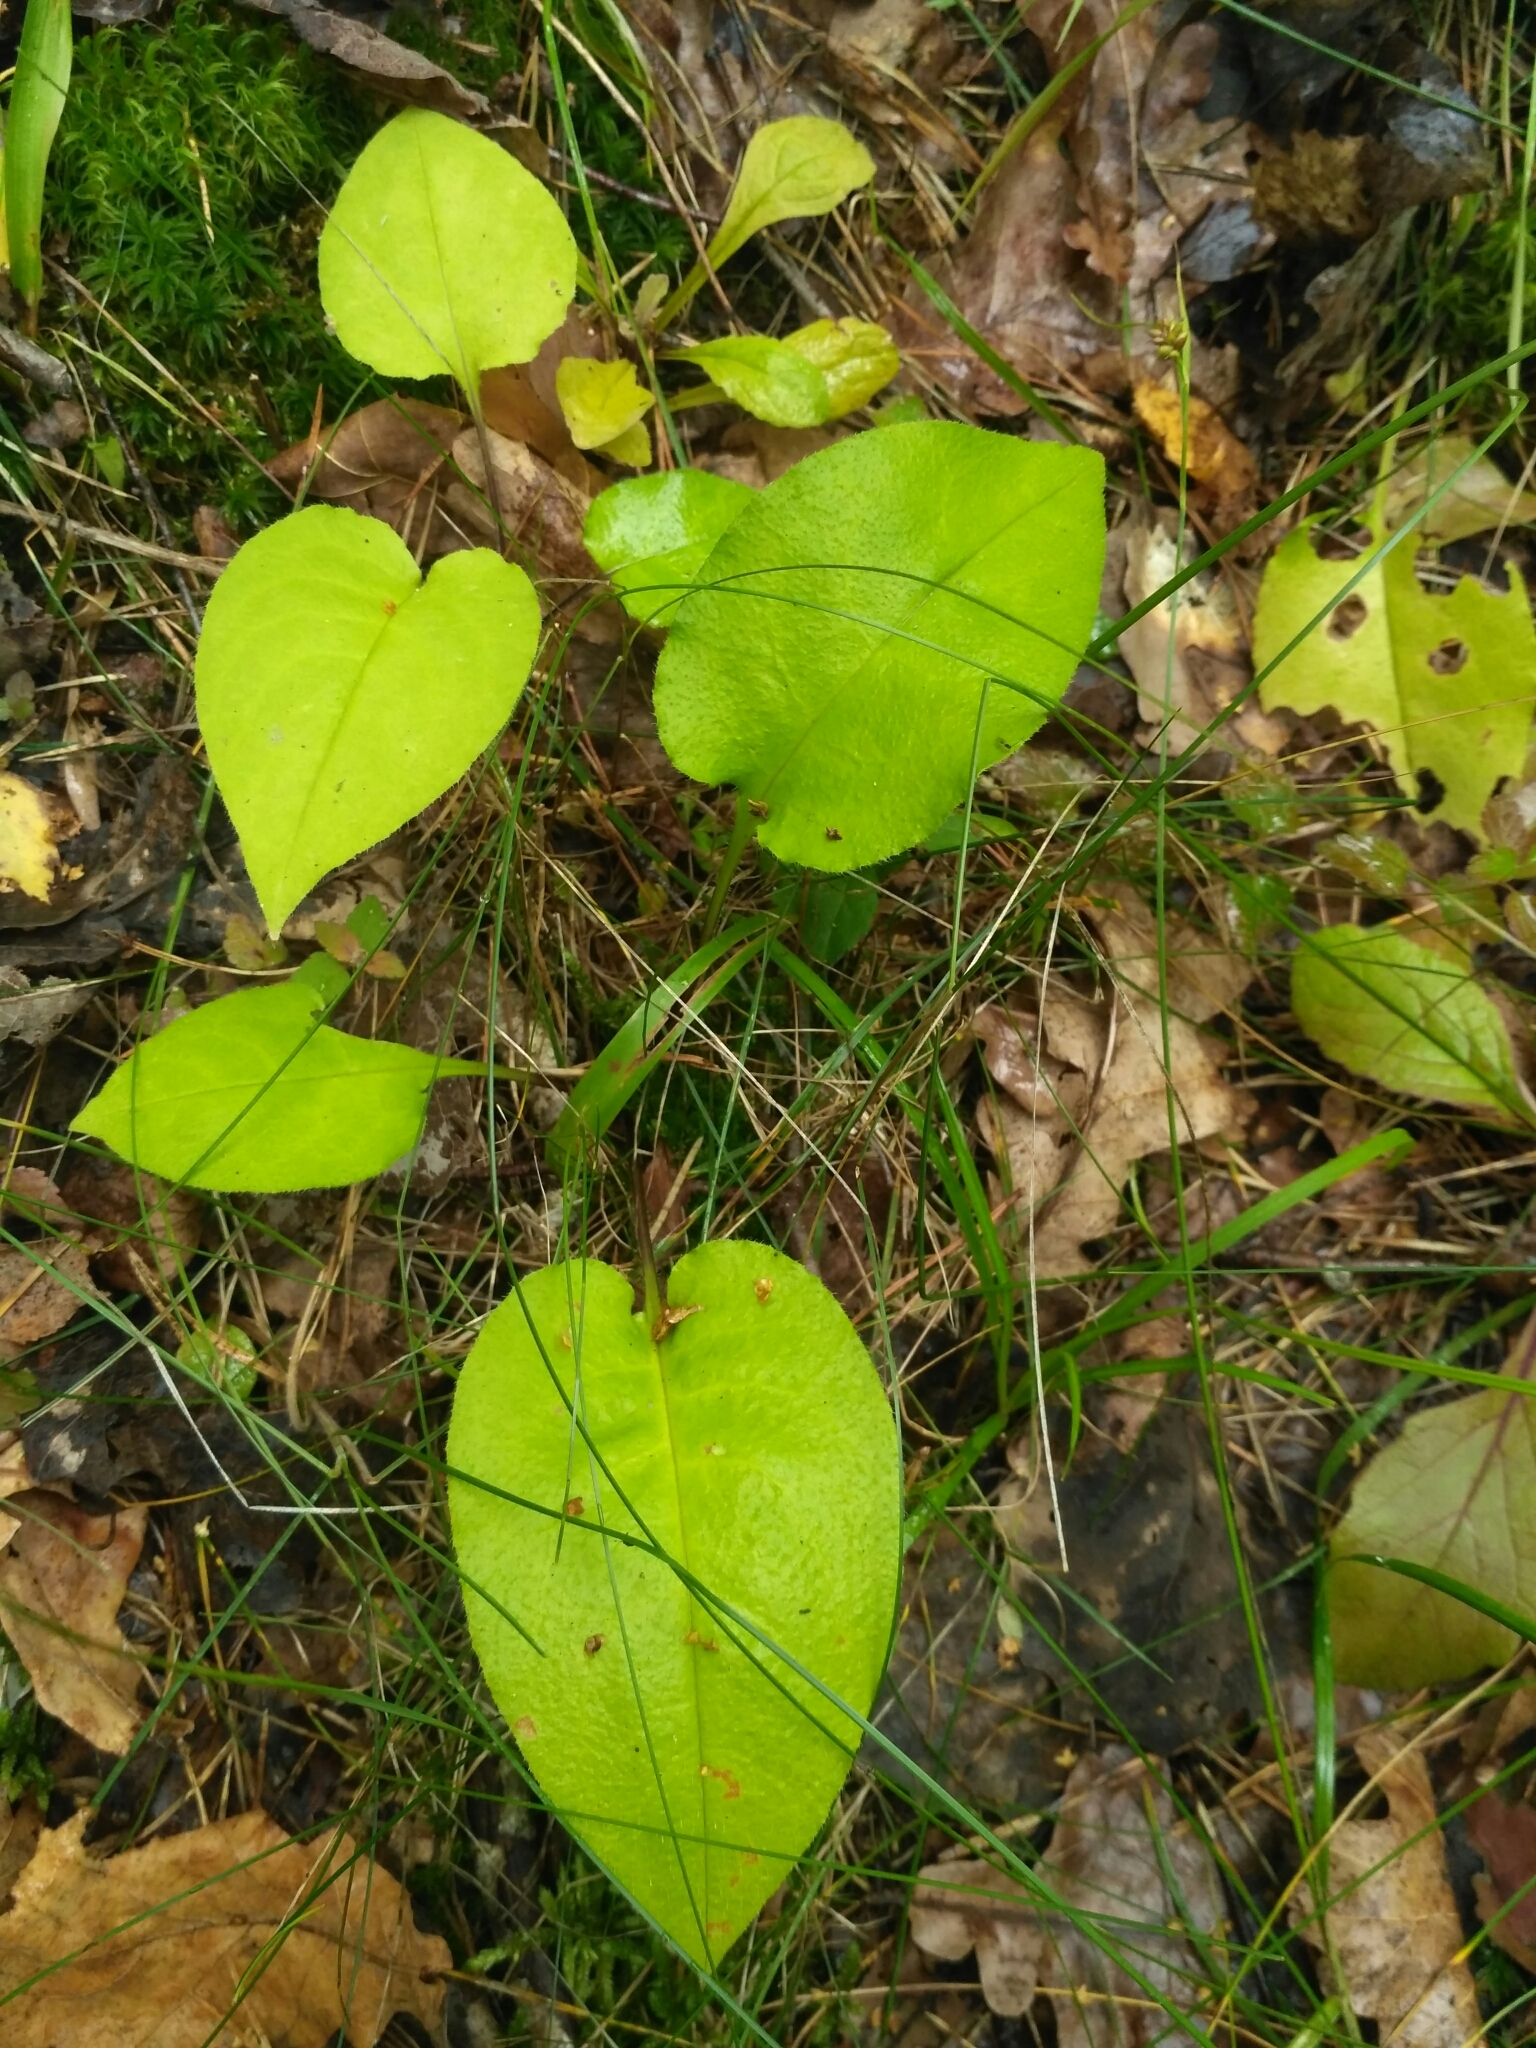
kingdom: Plantae
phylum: Tracheophyta
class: Magnoliopsida
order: Boraginales
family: Boraginaceae
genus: Pulmonaria
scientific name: Pulmonaria obscura
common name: Suffolk lungwort
